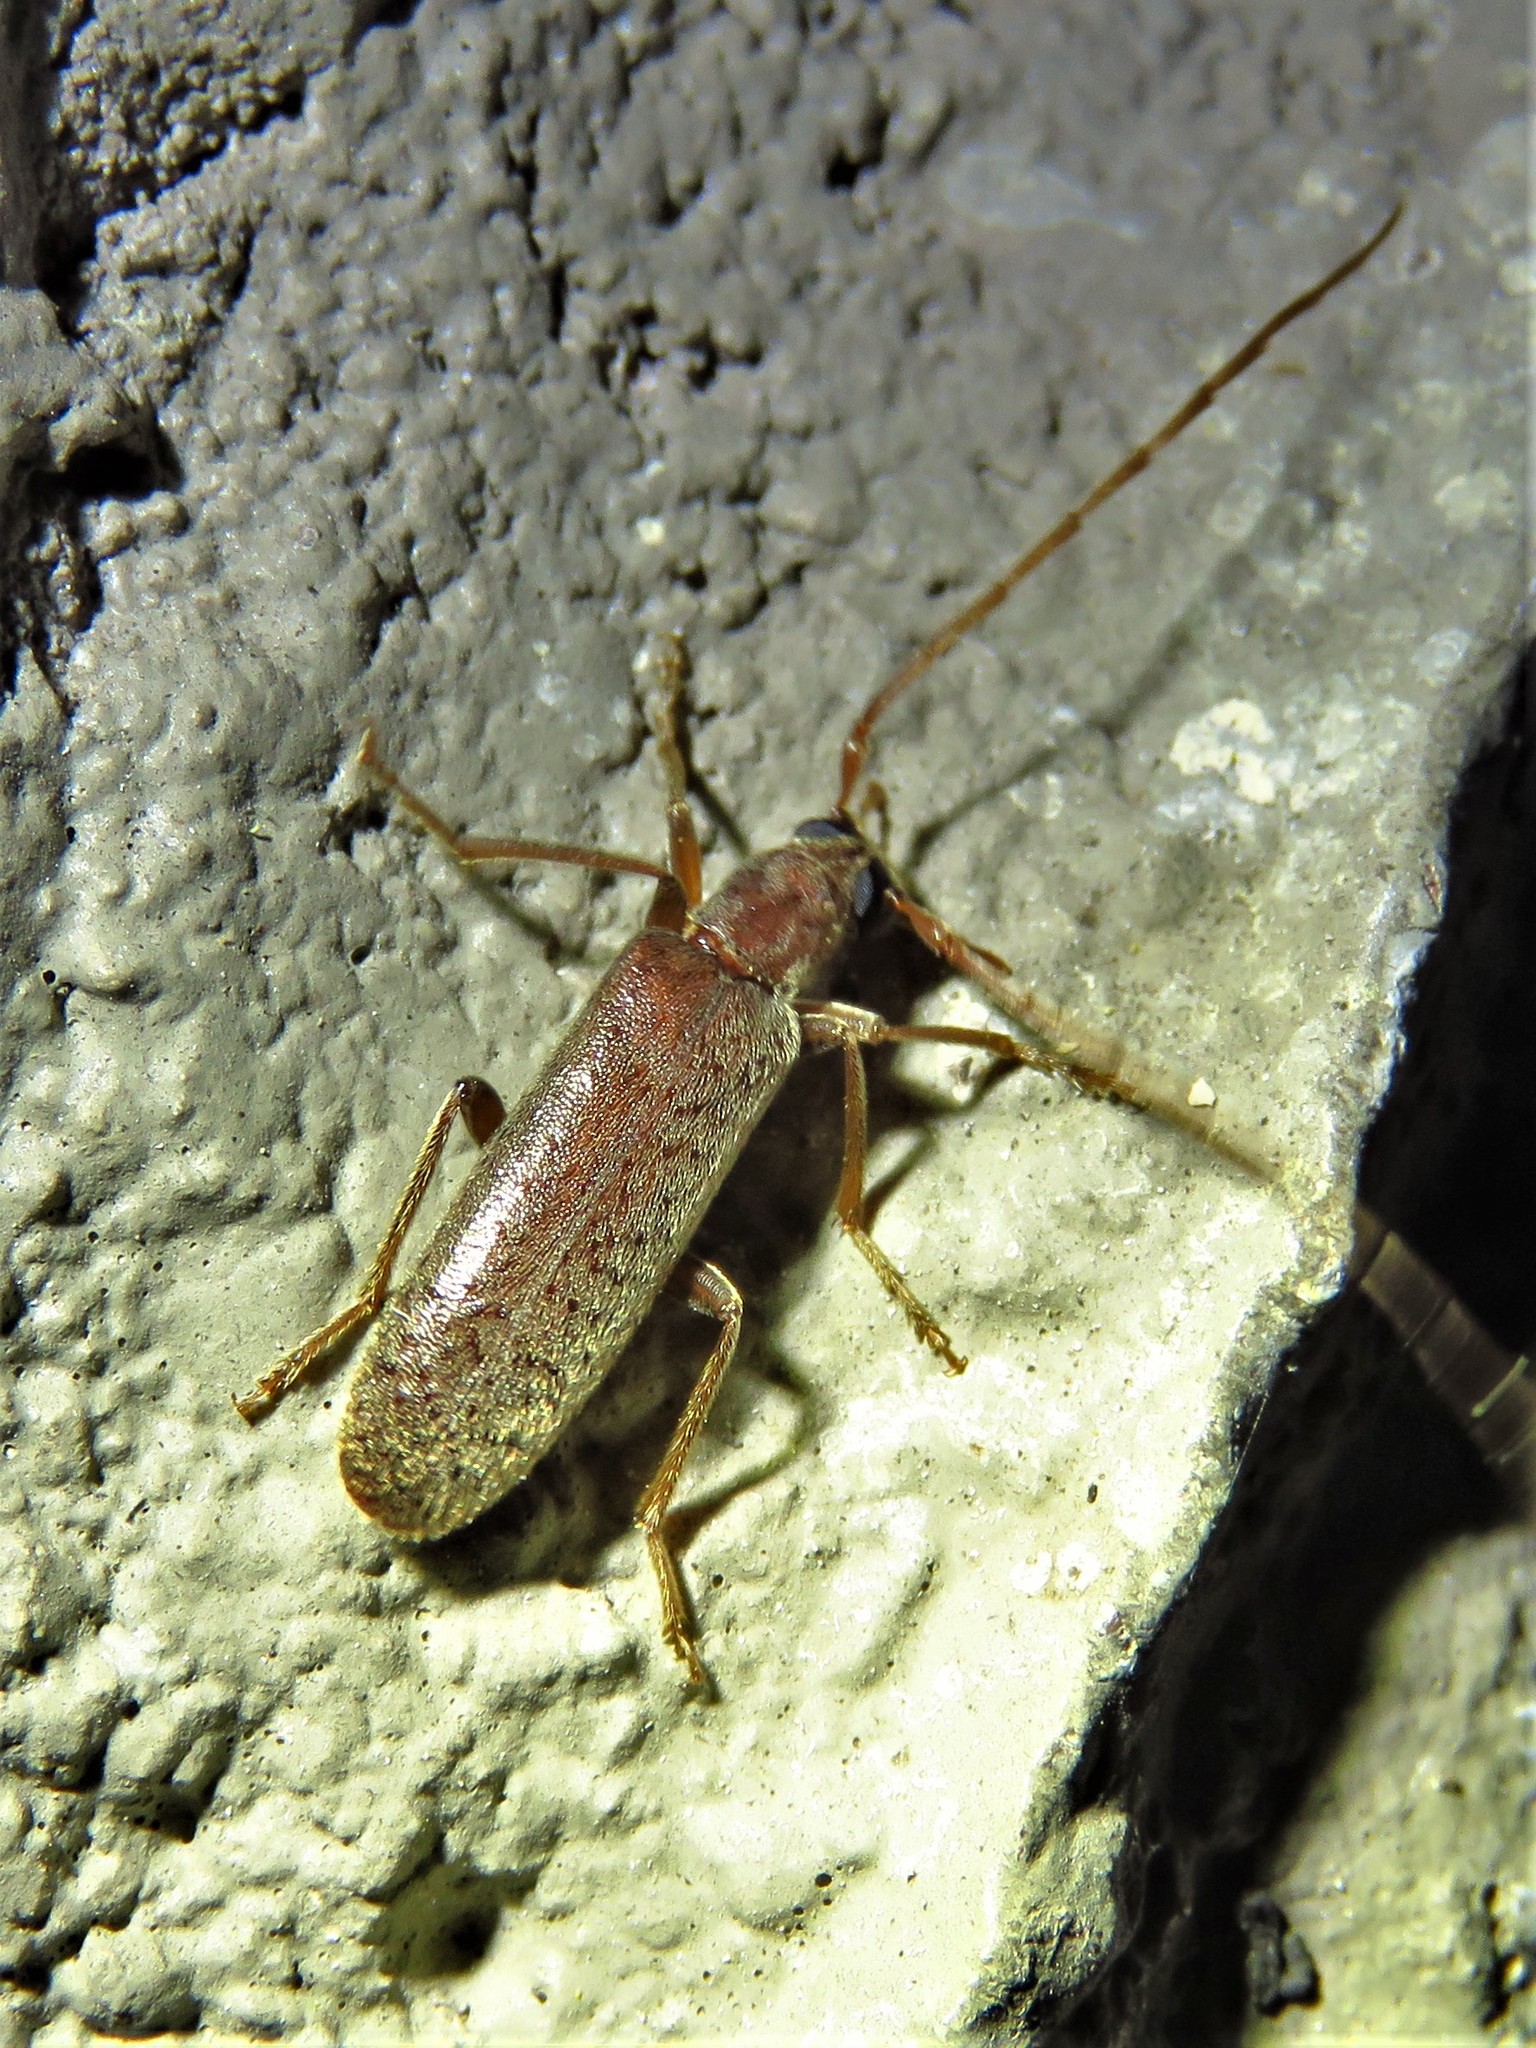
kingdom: Animalia
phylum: Arthropoda
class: Insecta
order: Coleoptera
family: Oedemeridae
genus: Sparedrus
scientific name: Sparedrus aspersus
